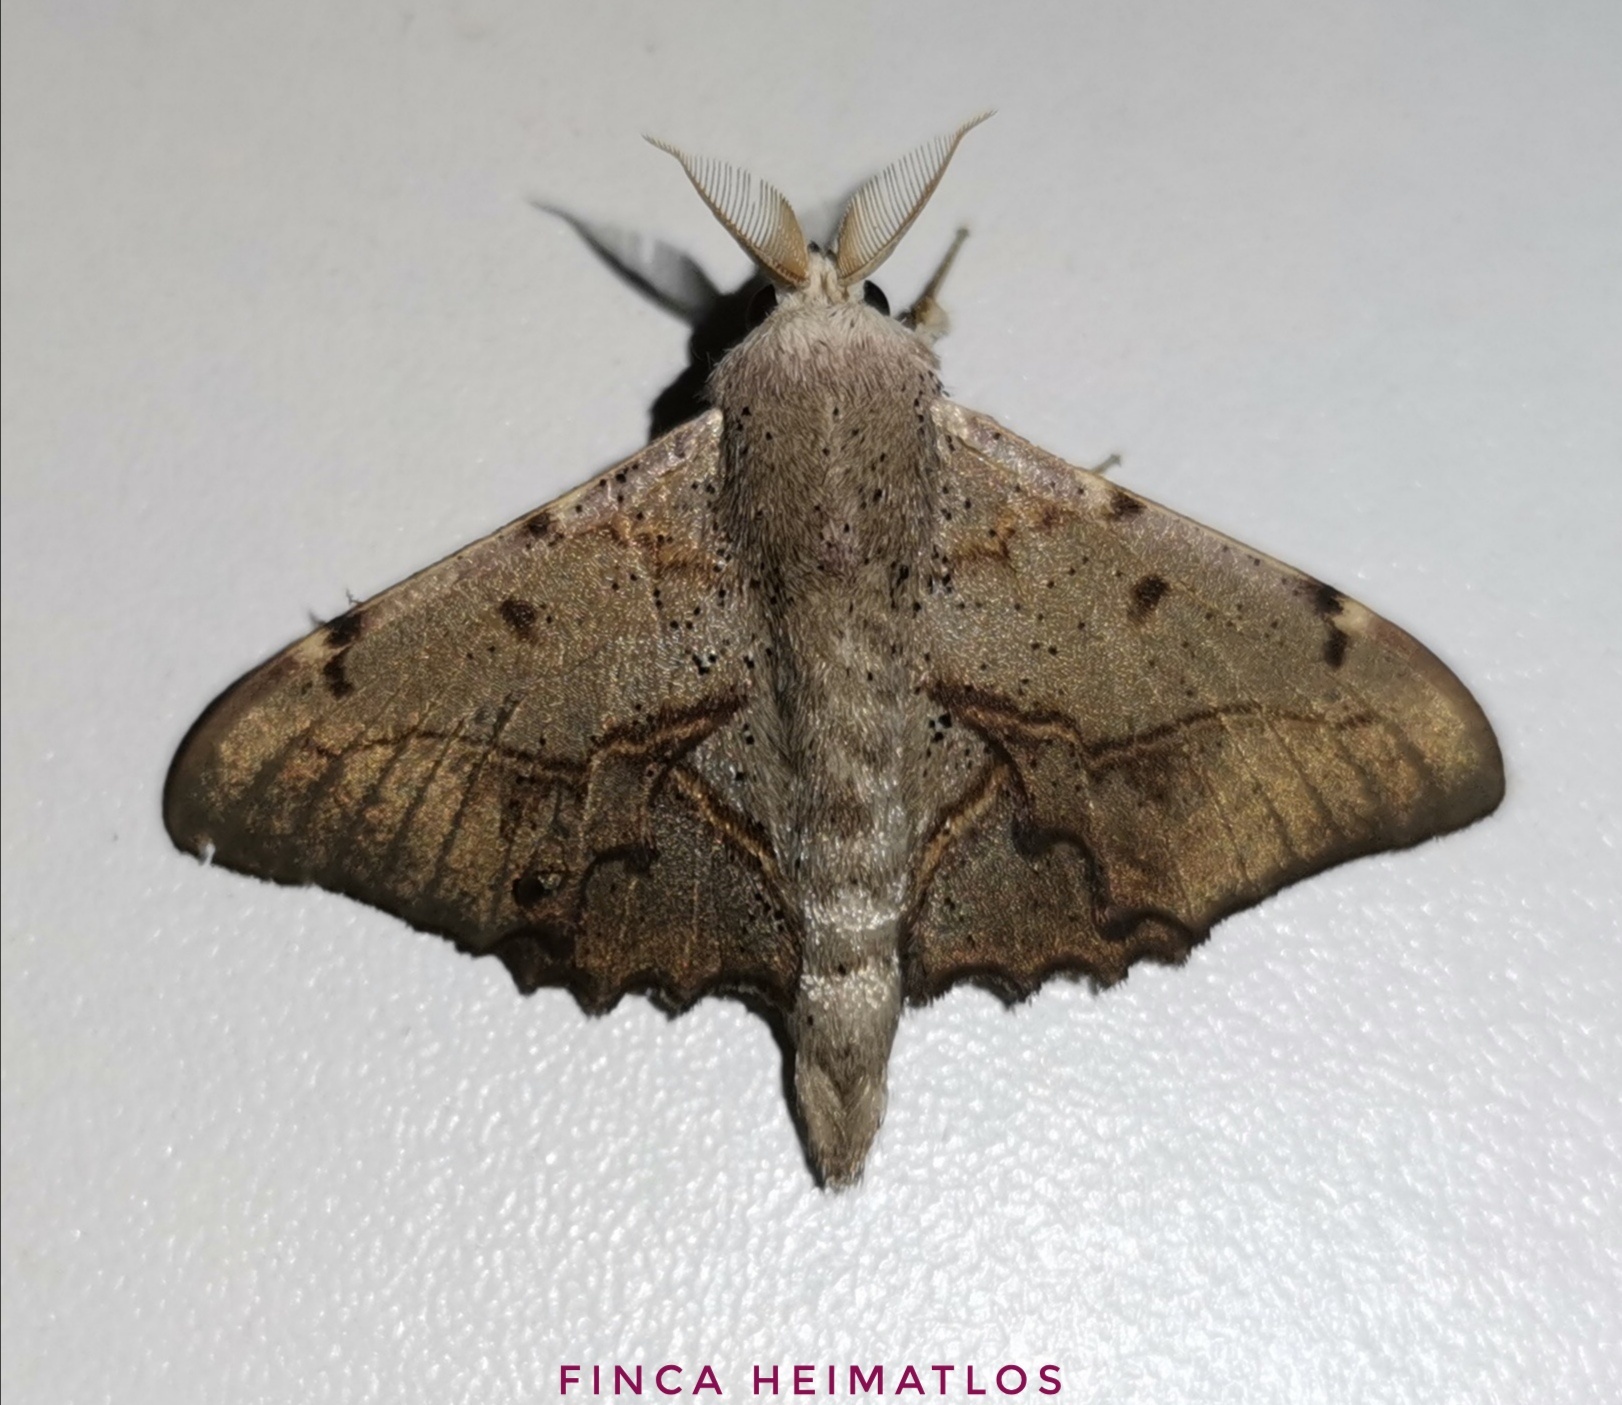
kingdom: Animalia
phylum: Arthropoda
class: Insecta
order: Lepidoptera
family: Mimallonidae
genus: Druentica
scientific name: Druentica muta
